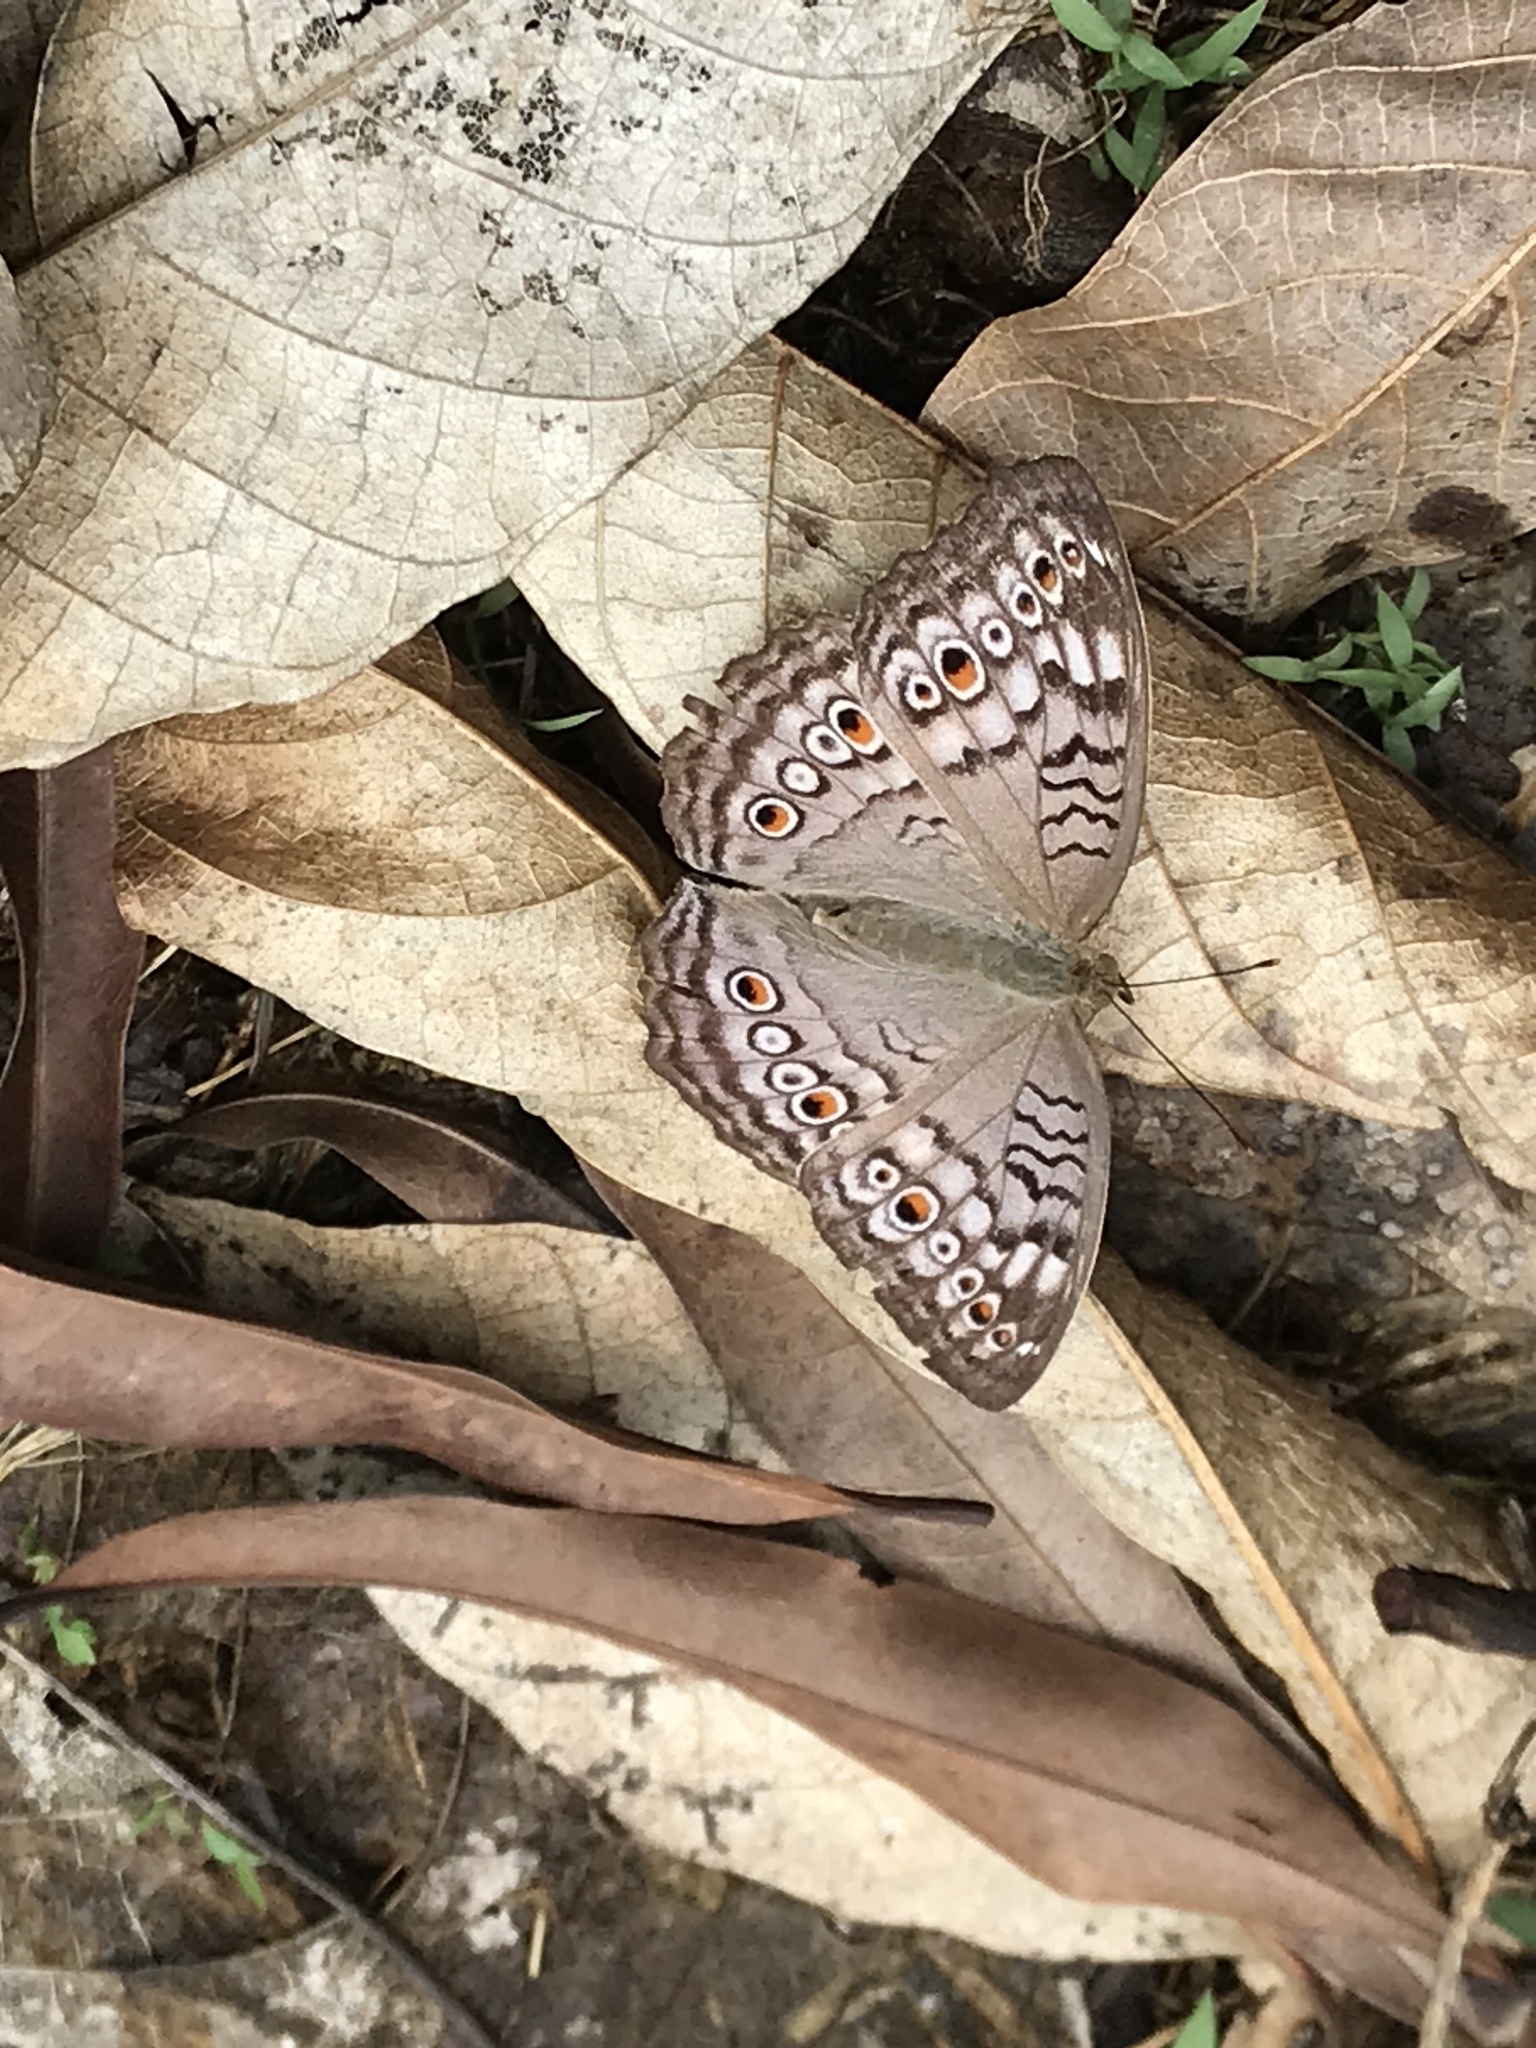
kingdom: Animalia
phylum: Arthropoda
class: Insecta
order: Lepidoptera
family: Nymphalidae
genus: Junonia
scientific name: Junonia atlites
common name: Grey pansy
